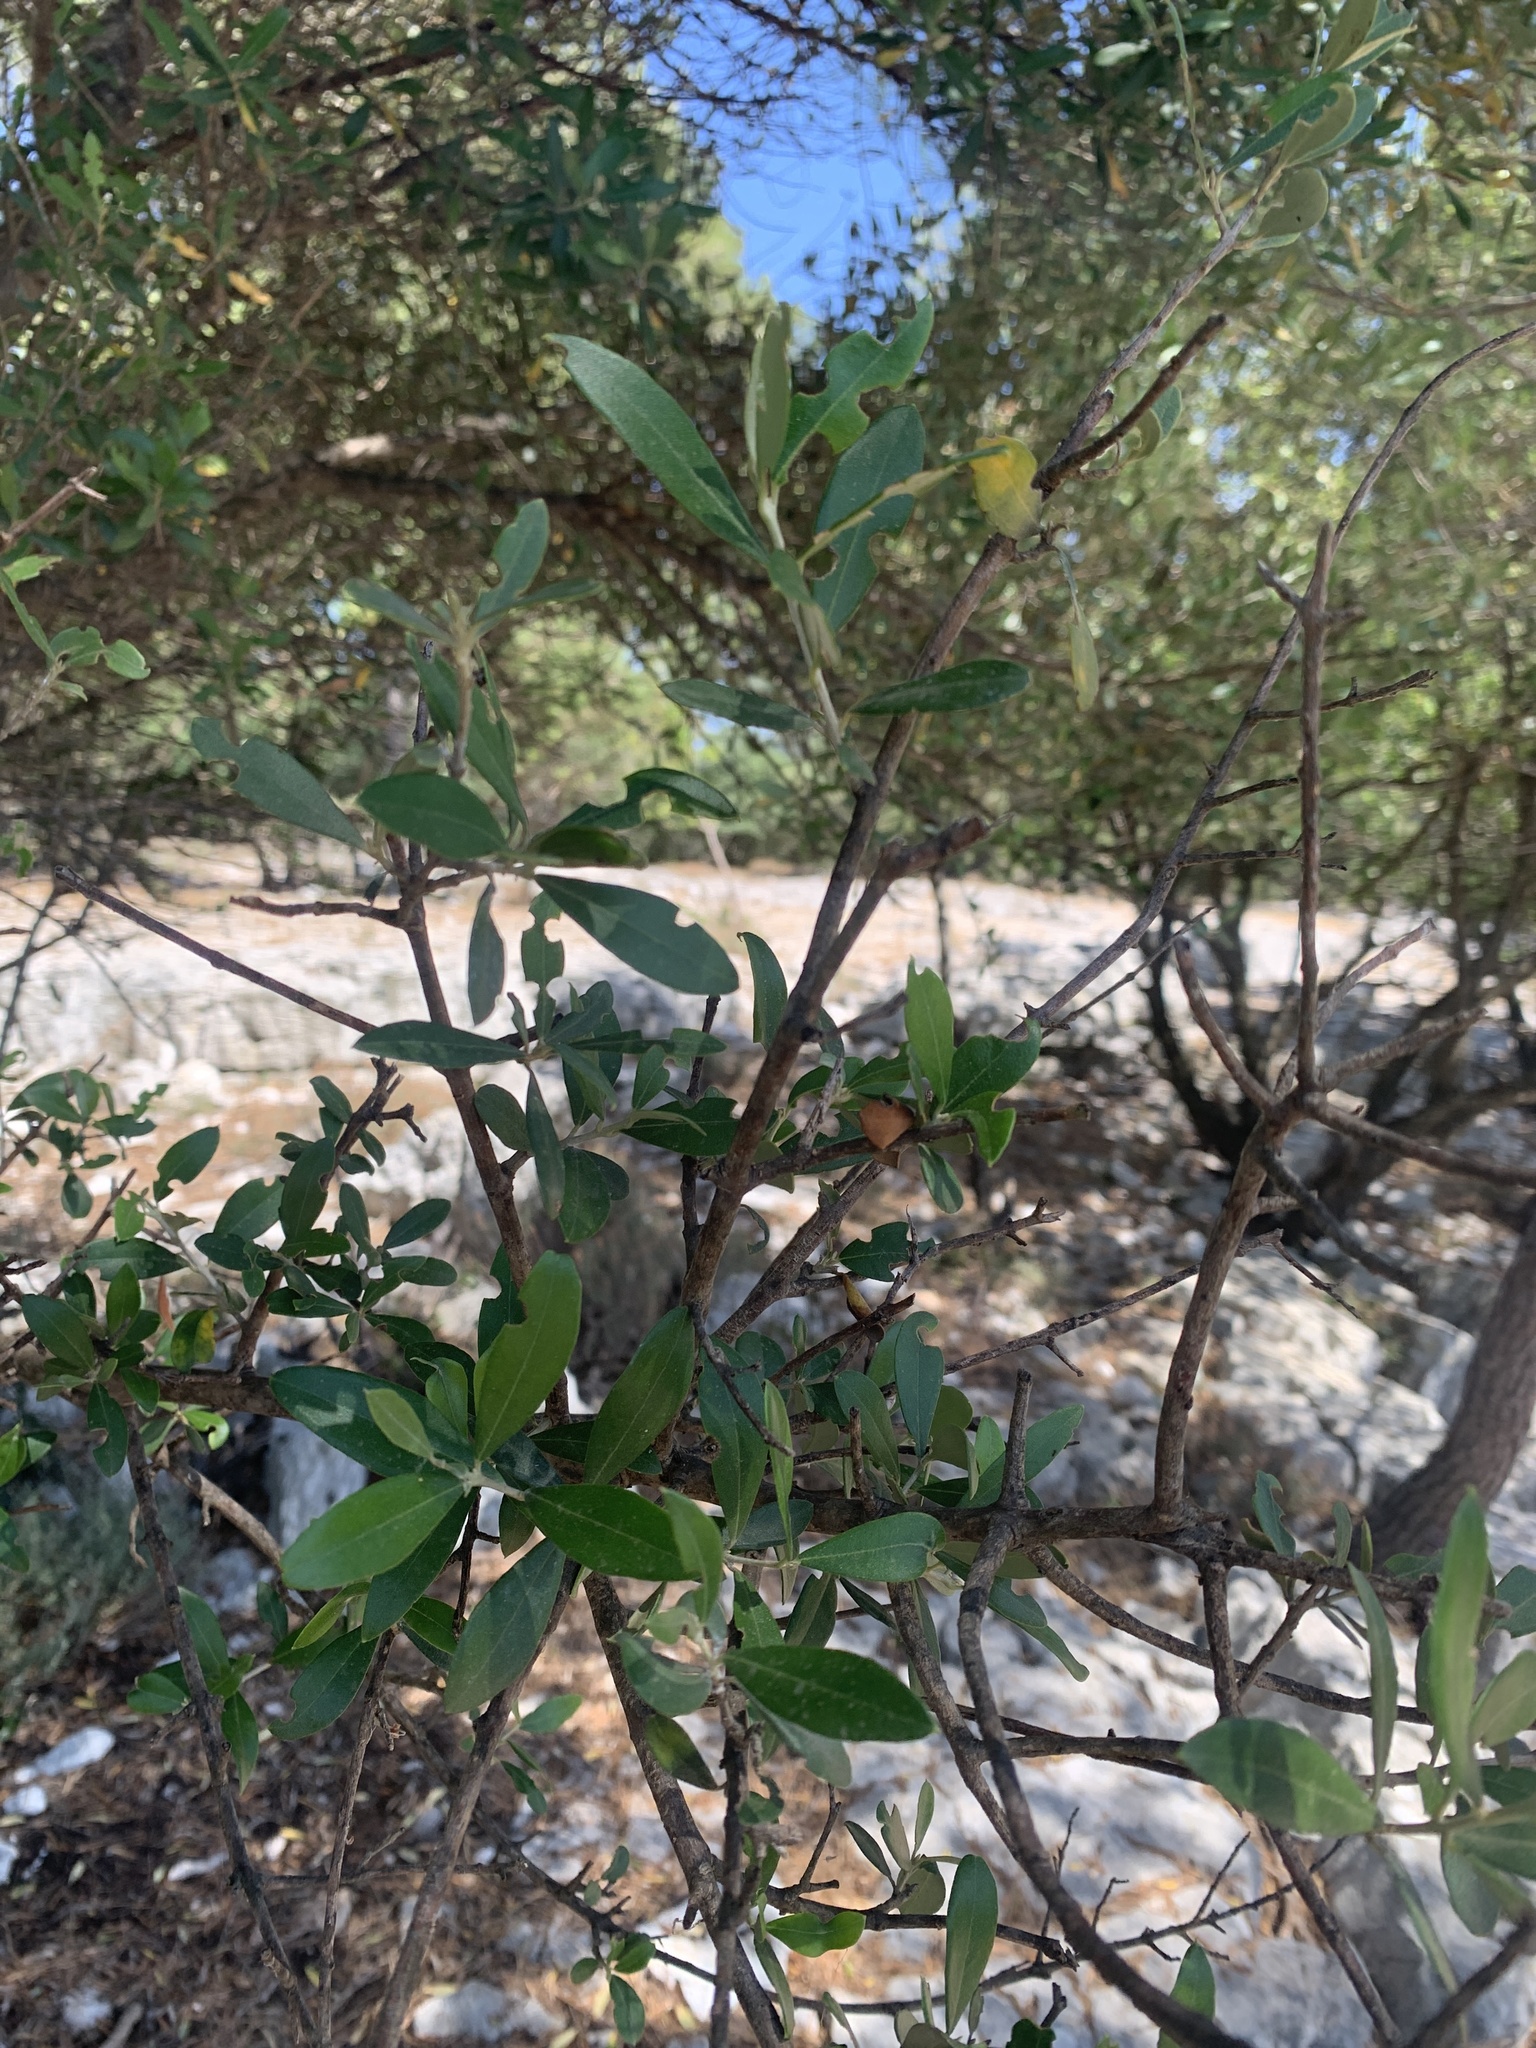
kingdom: Plantae
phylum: Tracheophyta
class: Magnoliopsida
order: Lamiales
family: Oleaceae
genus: Olea
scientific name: Olea europaea
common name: Olive
